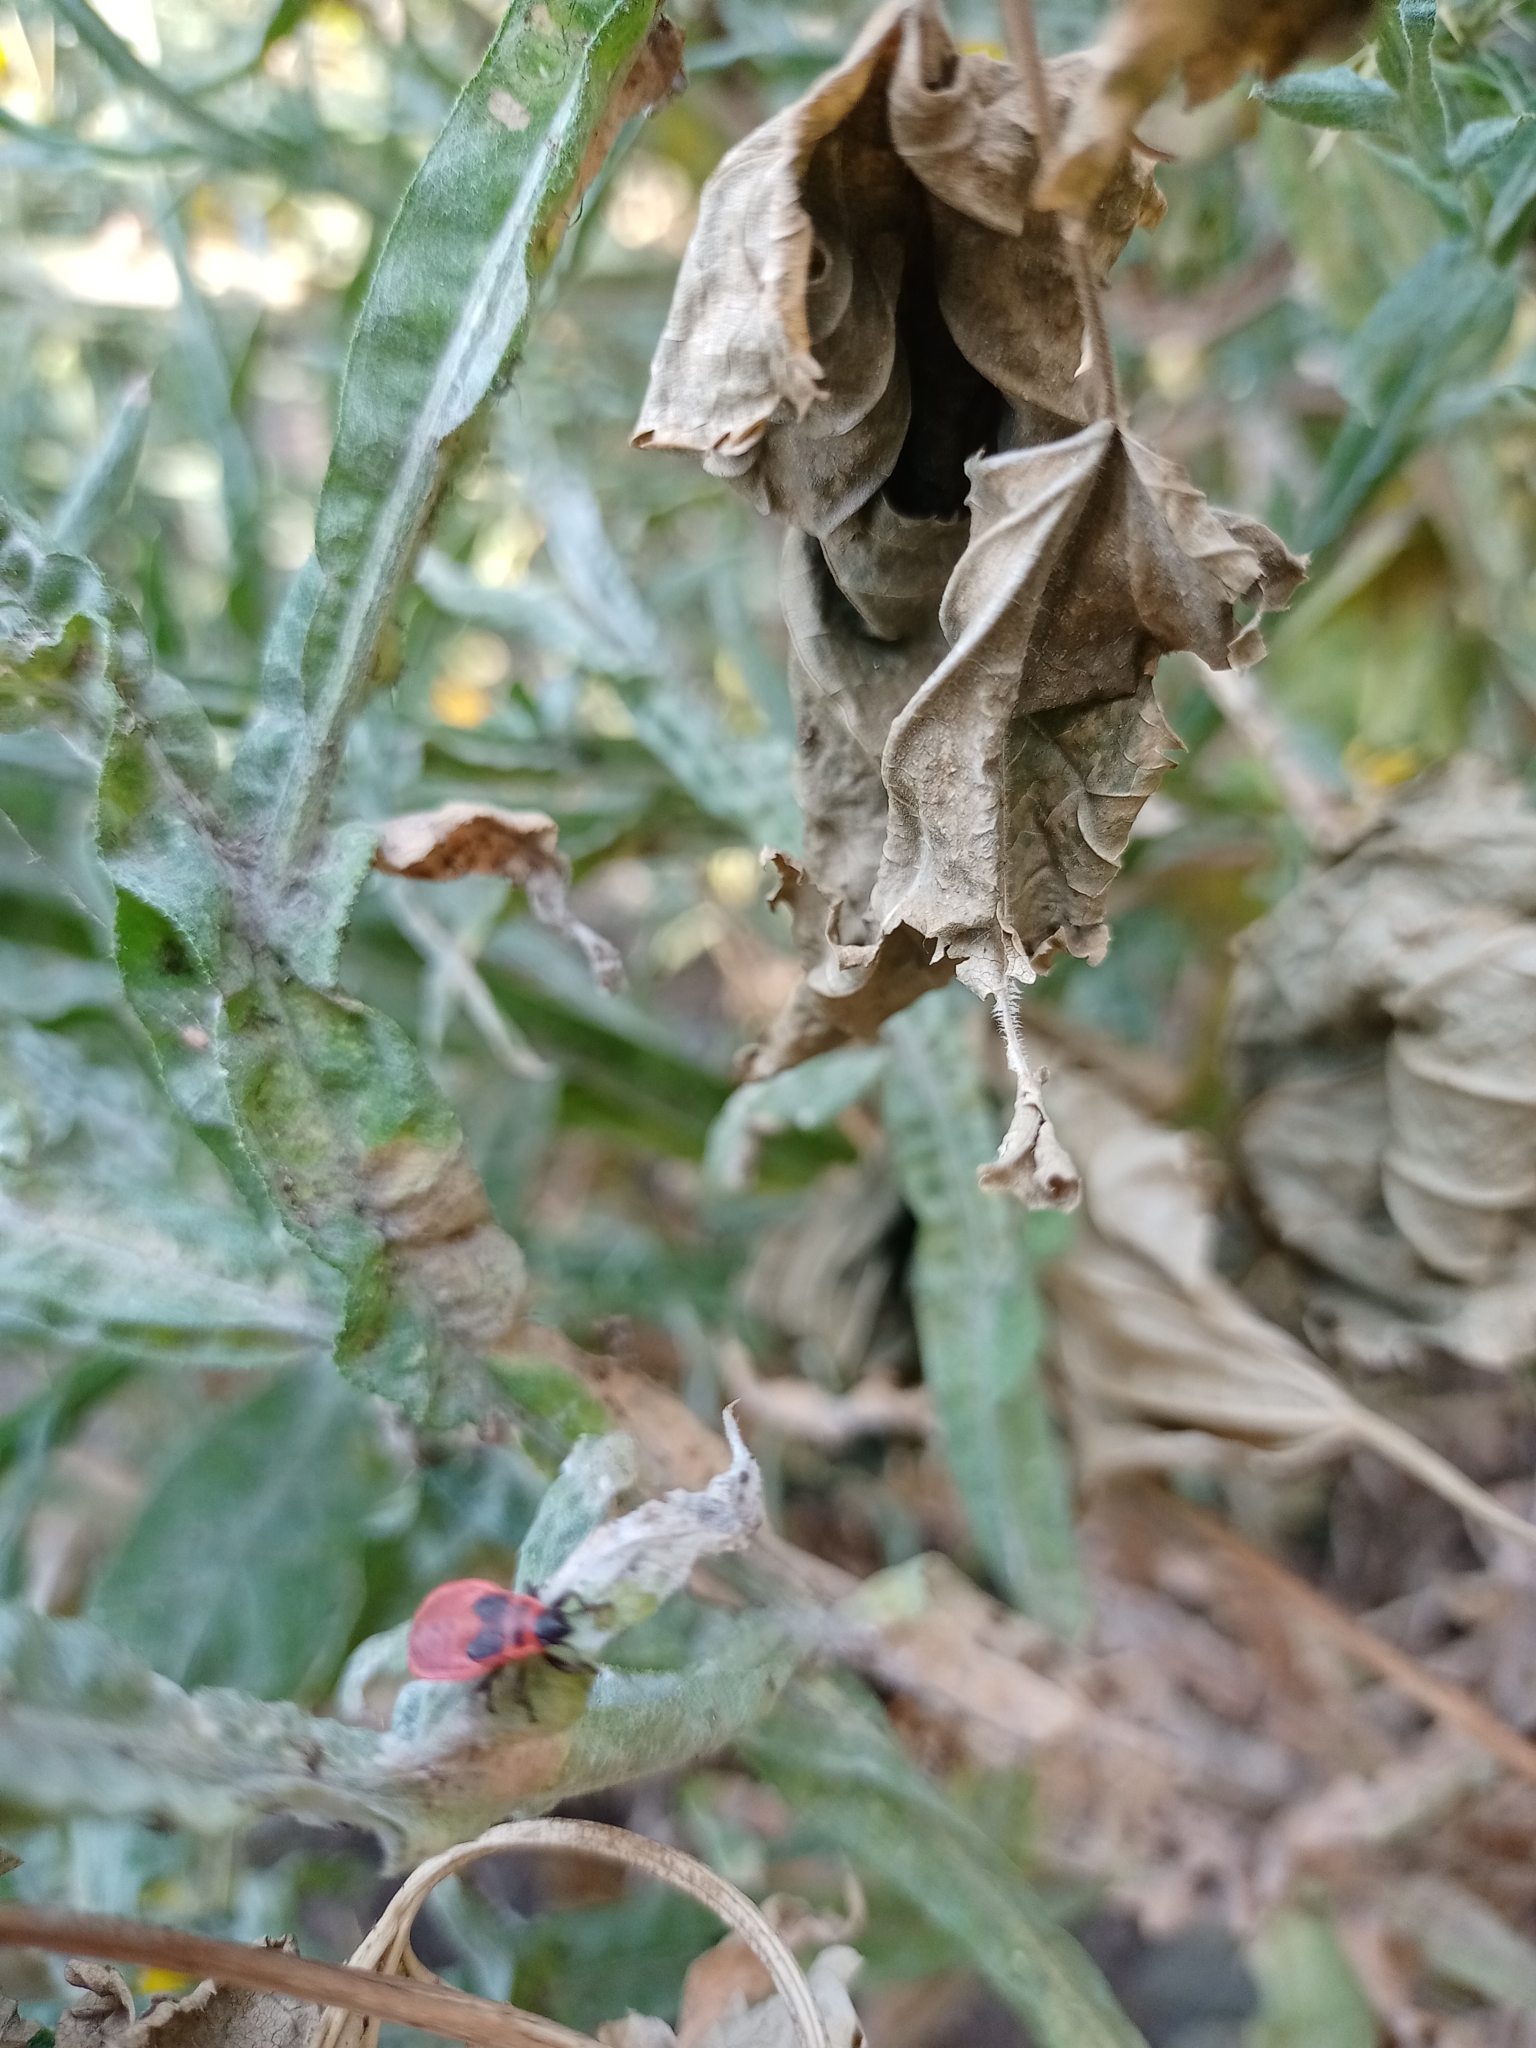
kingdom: Animalia
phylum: Arthropoda
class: Insecta
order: Hemiptera
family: Pyrrhocoridae
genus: Pyrrhocoris
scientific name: Pyrrhocoris apterus
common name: Firebug
